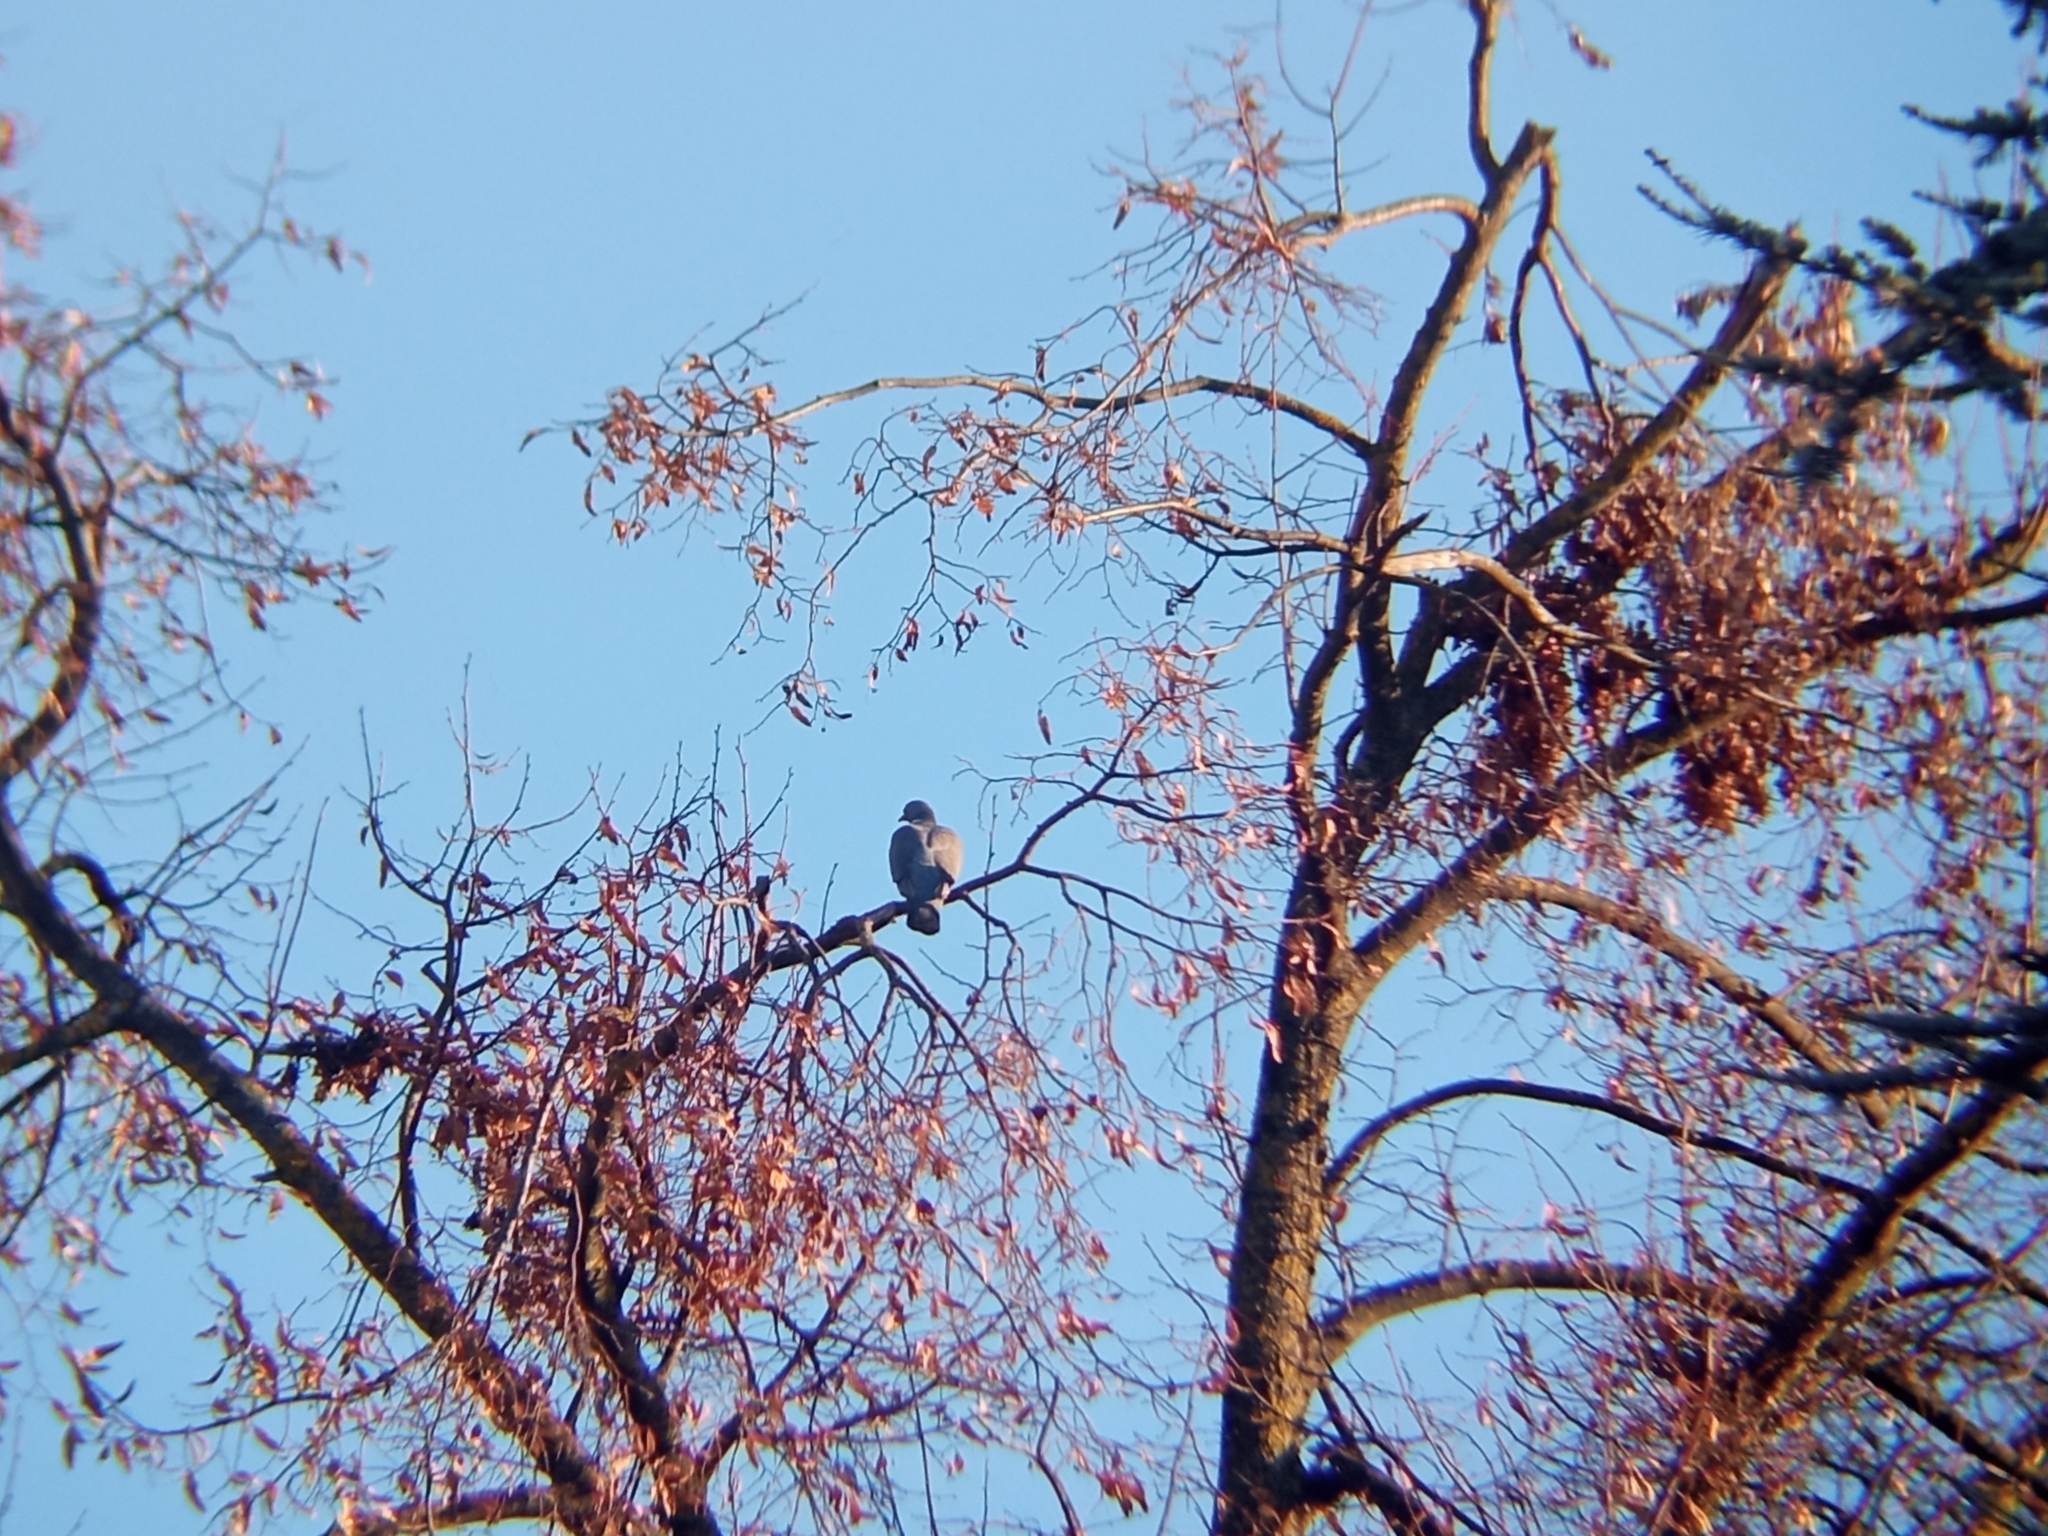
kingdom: Animalia
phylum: Chordata
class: Aves
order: Columbiformes
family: Columbidae
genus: Columba
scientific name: Columba palumbus
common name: Common wood pigeon
